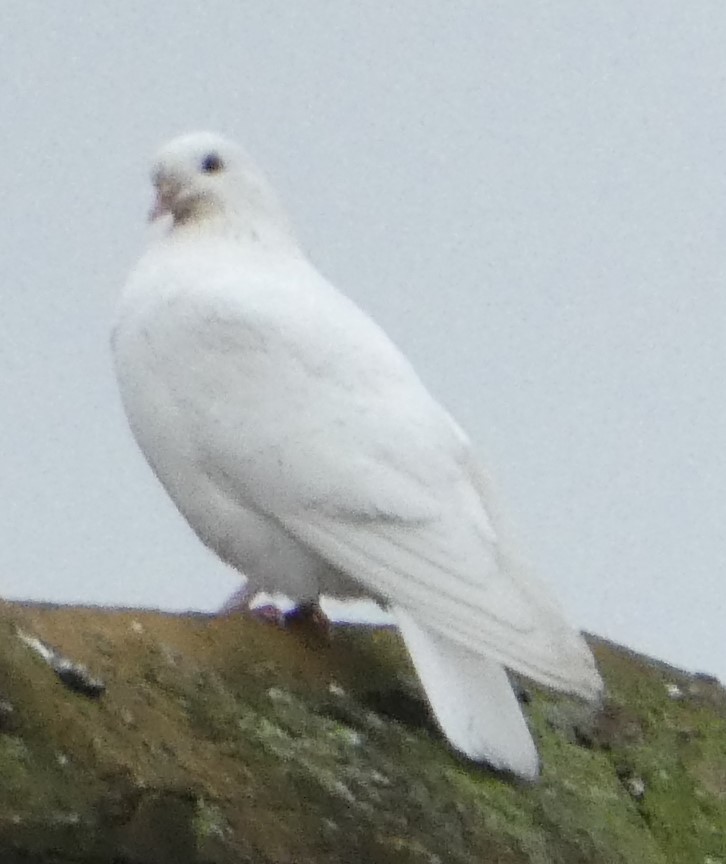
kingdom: Animalia
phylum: Chordata
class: Aves
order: Columbiformes
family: Columbidae
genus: Columba
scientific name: Columba livia
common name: Rock pigeon
